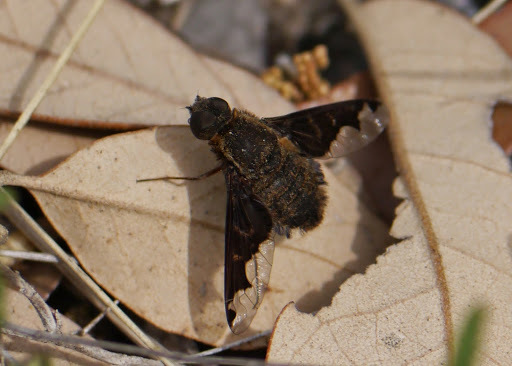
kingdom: Animalia
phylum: Arthropoda
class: Insecta
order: Diptera
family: Bombyliidae
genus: Hemipenthes
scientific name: Hemipenthes sinuosus
